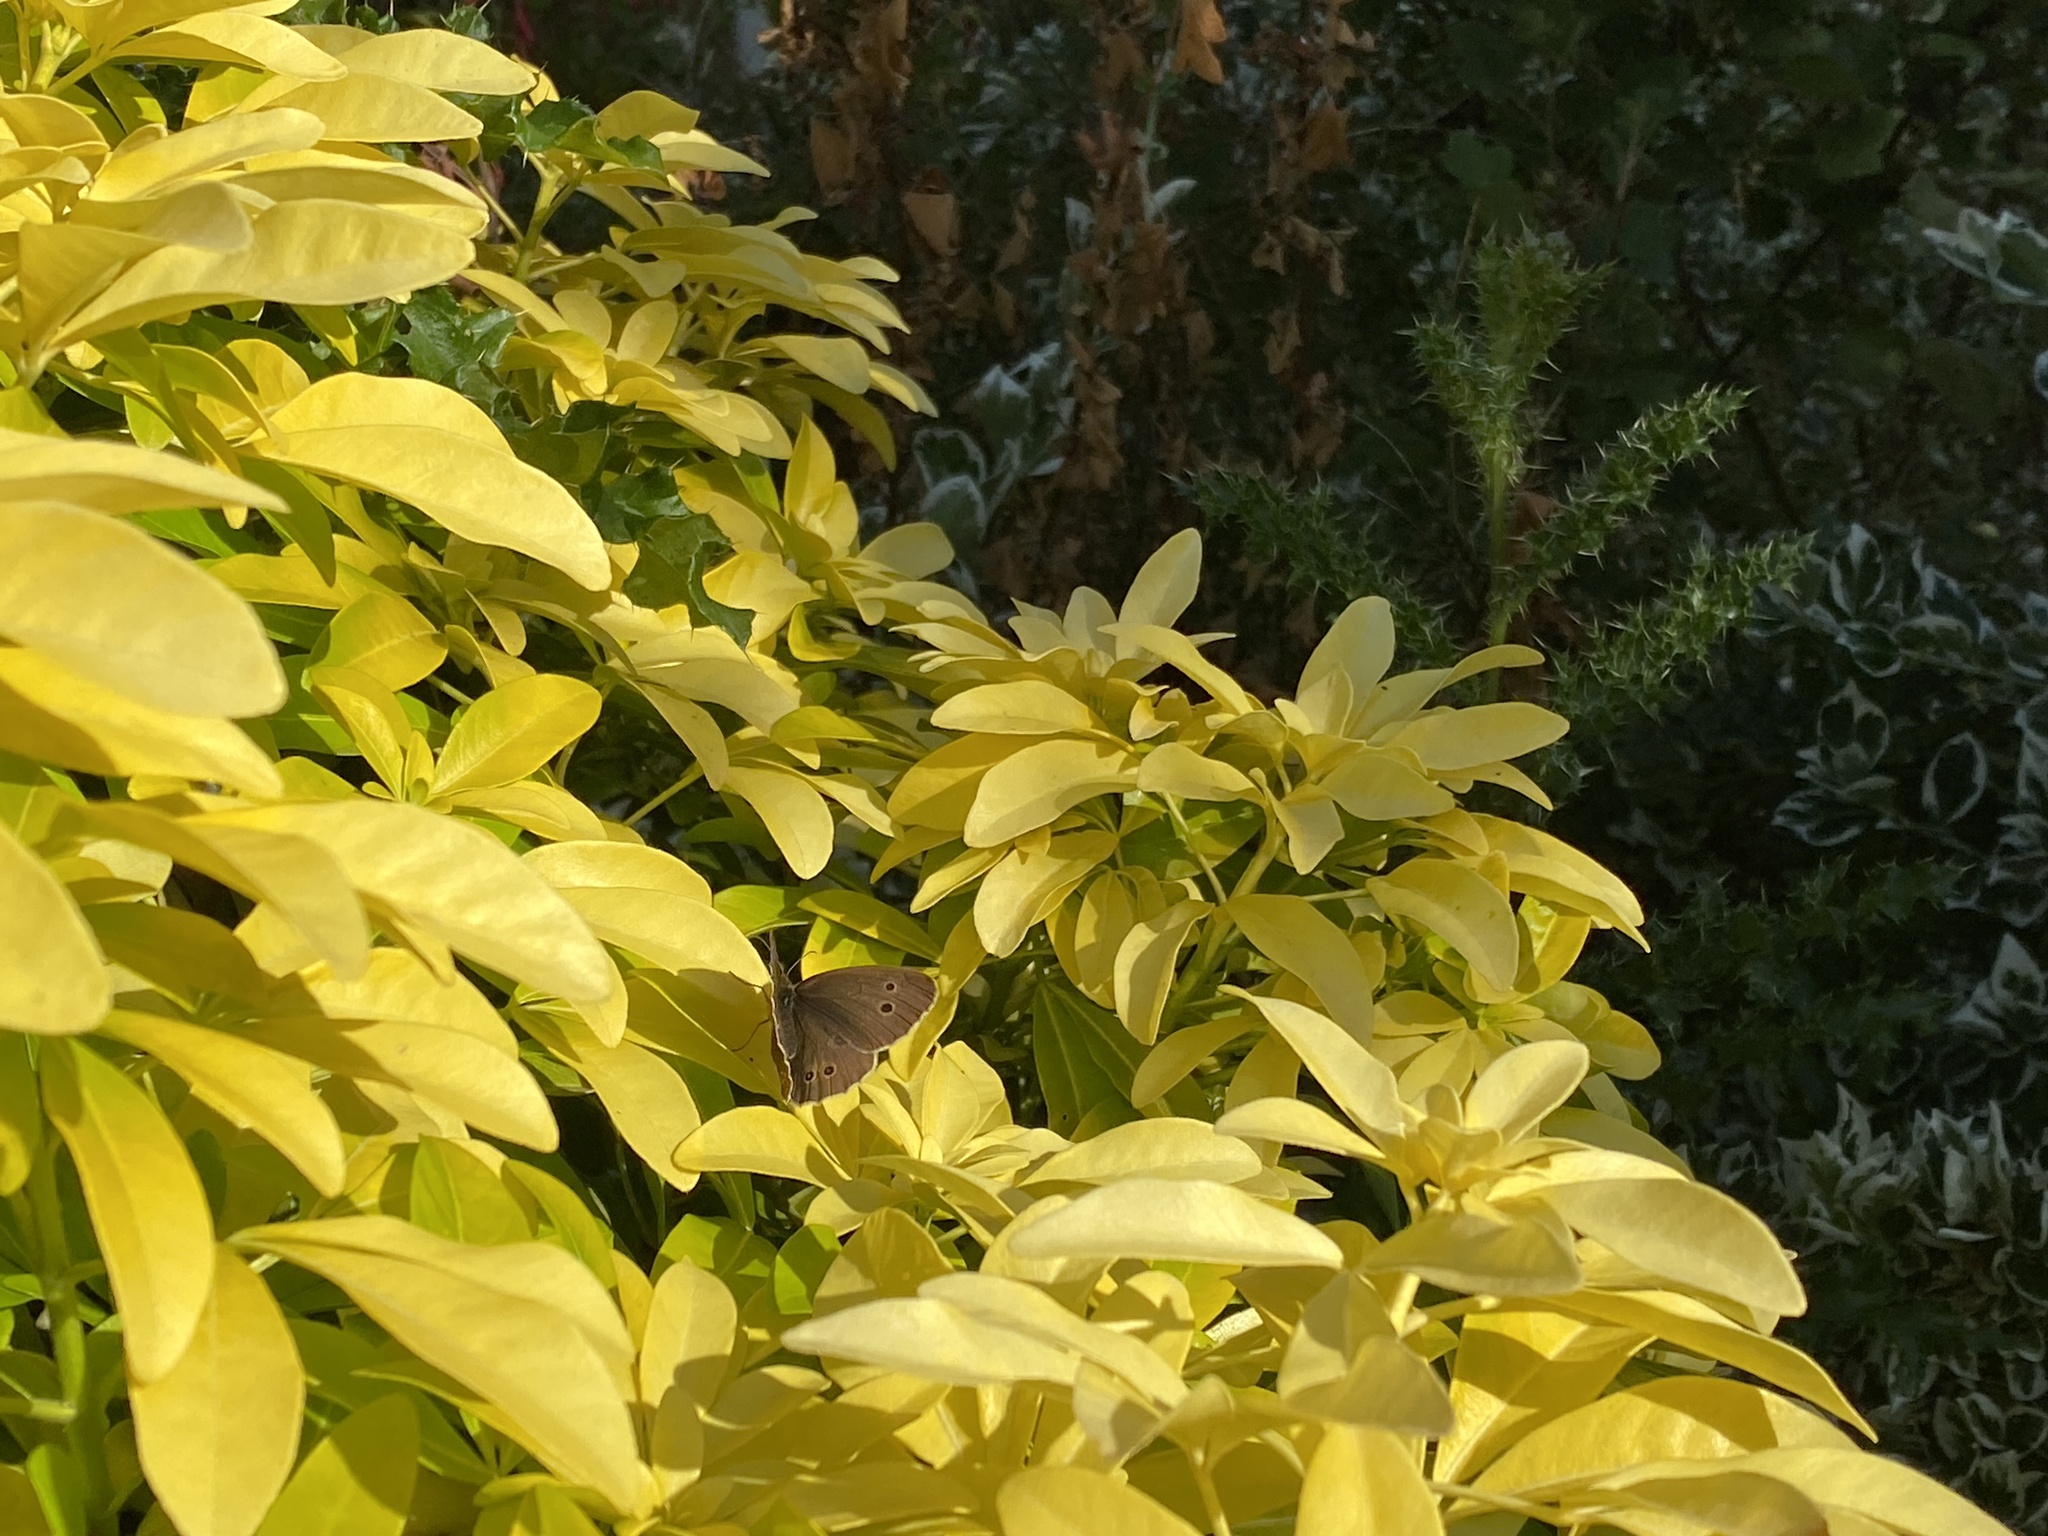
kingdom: Animalia
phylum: Arthropoda
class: Insecta
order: Lepidoptera
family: Nymphalidae
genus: Aphantopus
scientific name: Aphantopus hyperantus
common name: Ringlet
